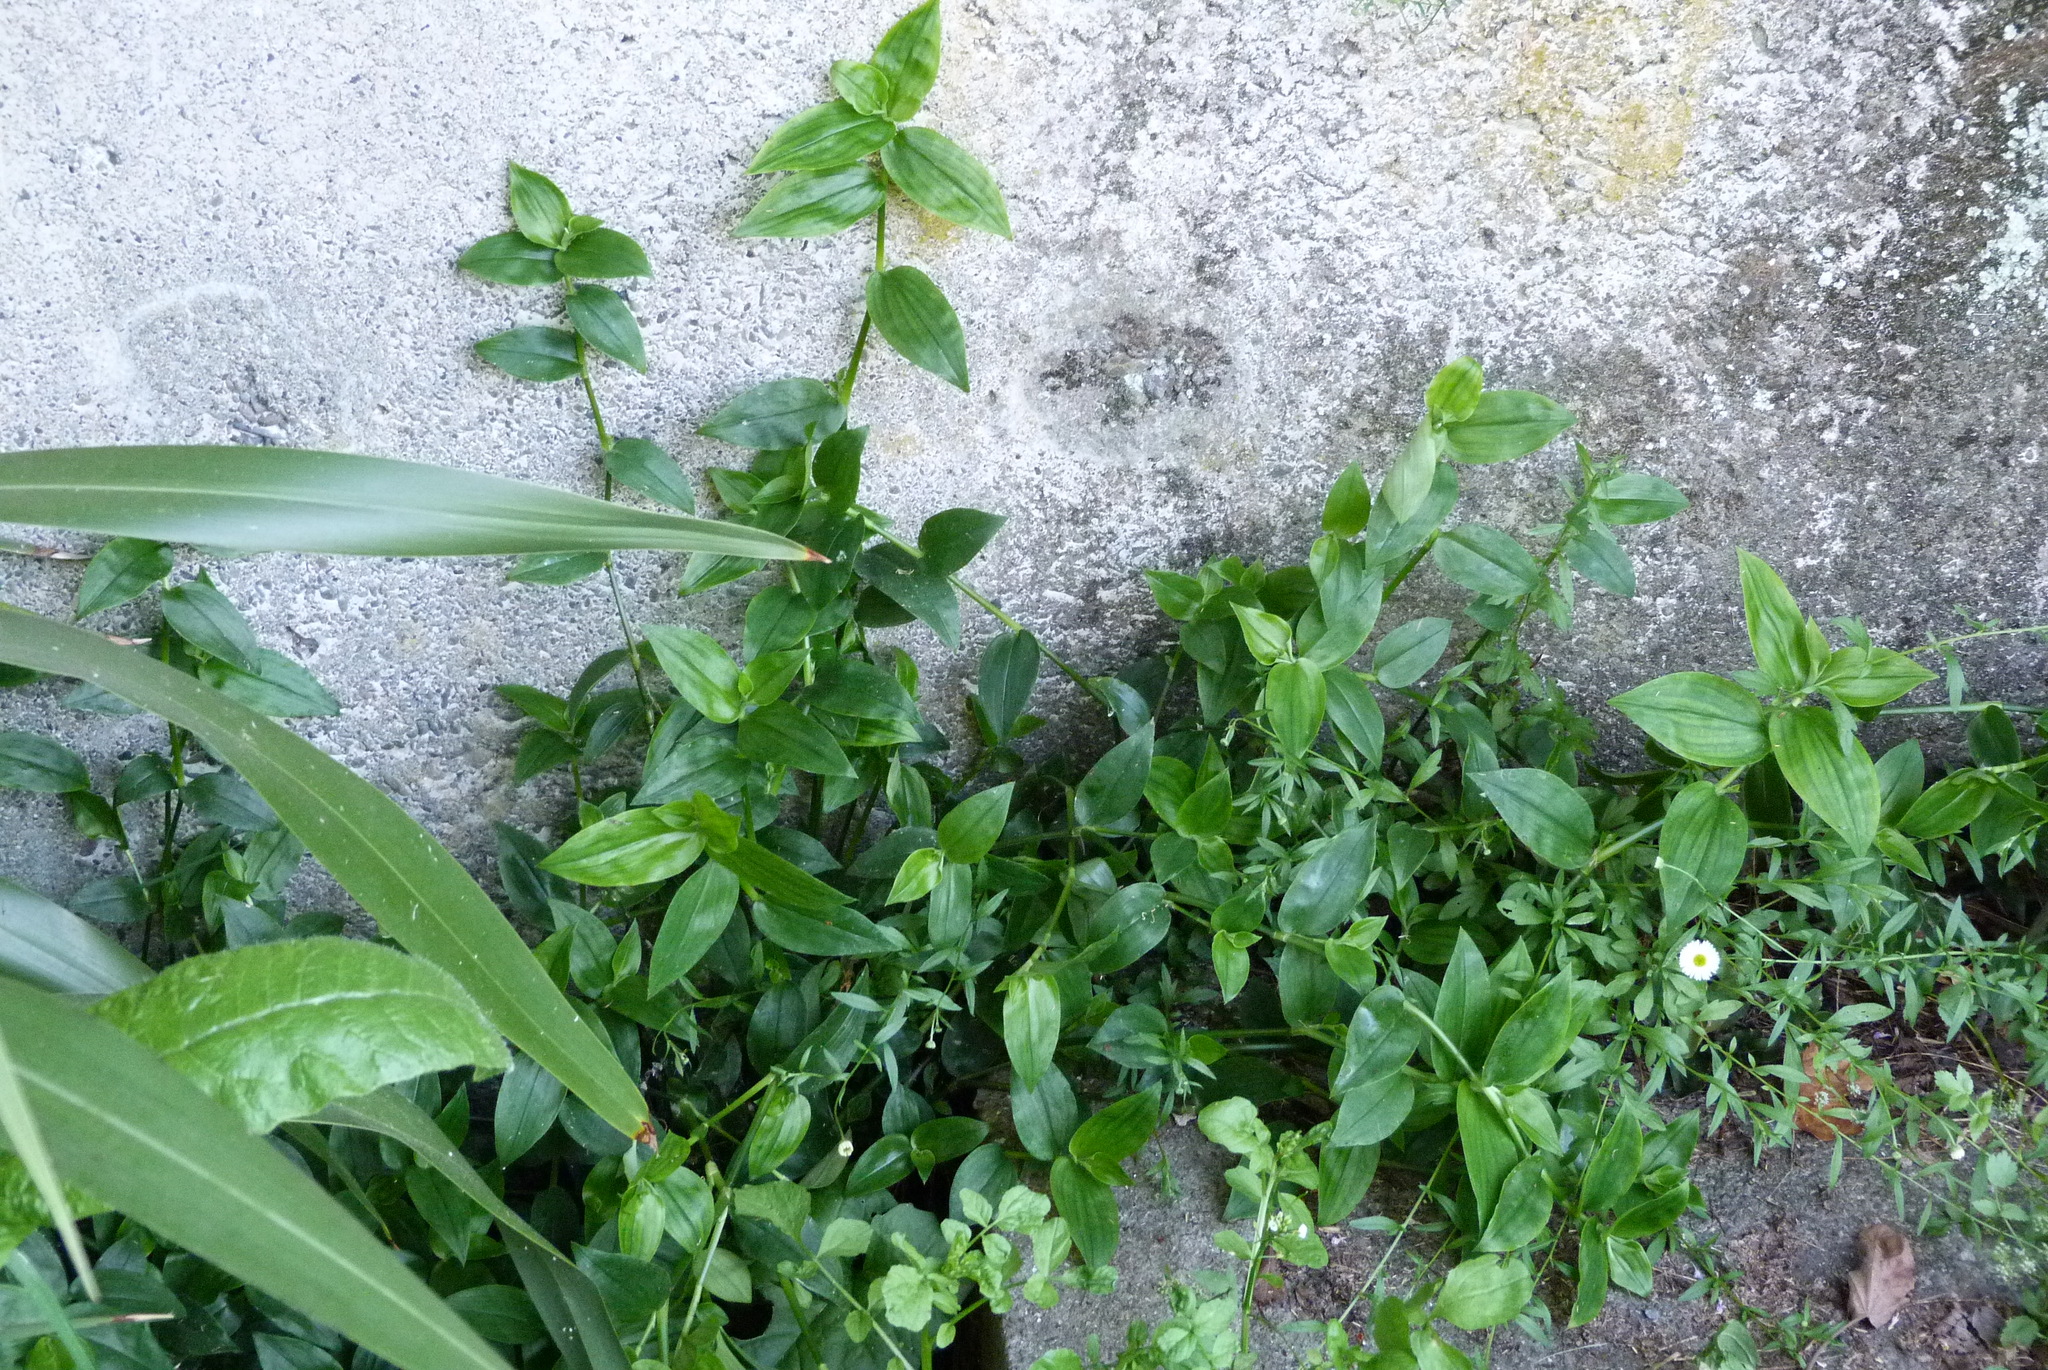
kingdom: Plantae
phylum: Tracheophyta
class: Liliopsida
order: Commelinales
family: Commelinaceae
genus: Tradescantia
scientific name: Tradescantia fluminensis
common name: Wandering-jew
